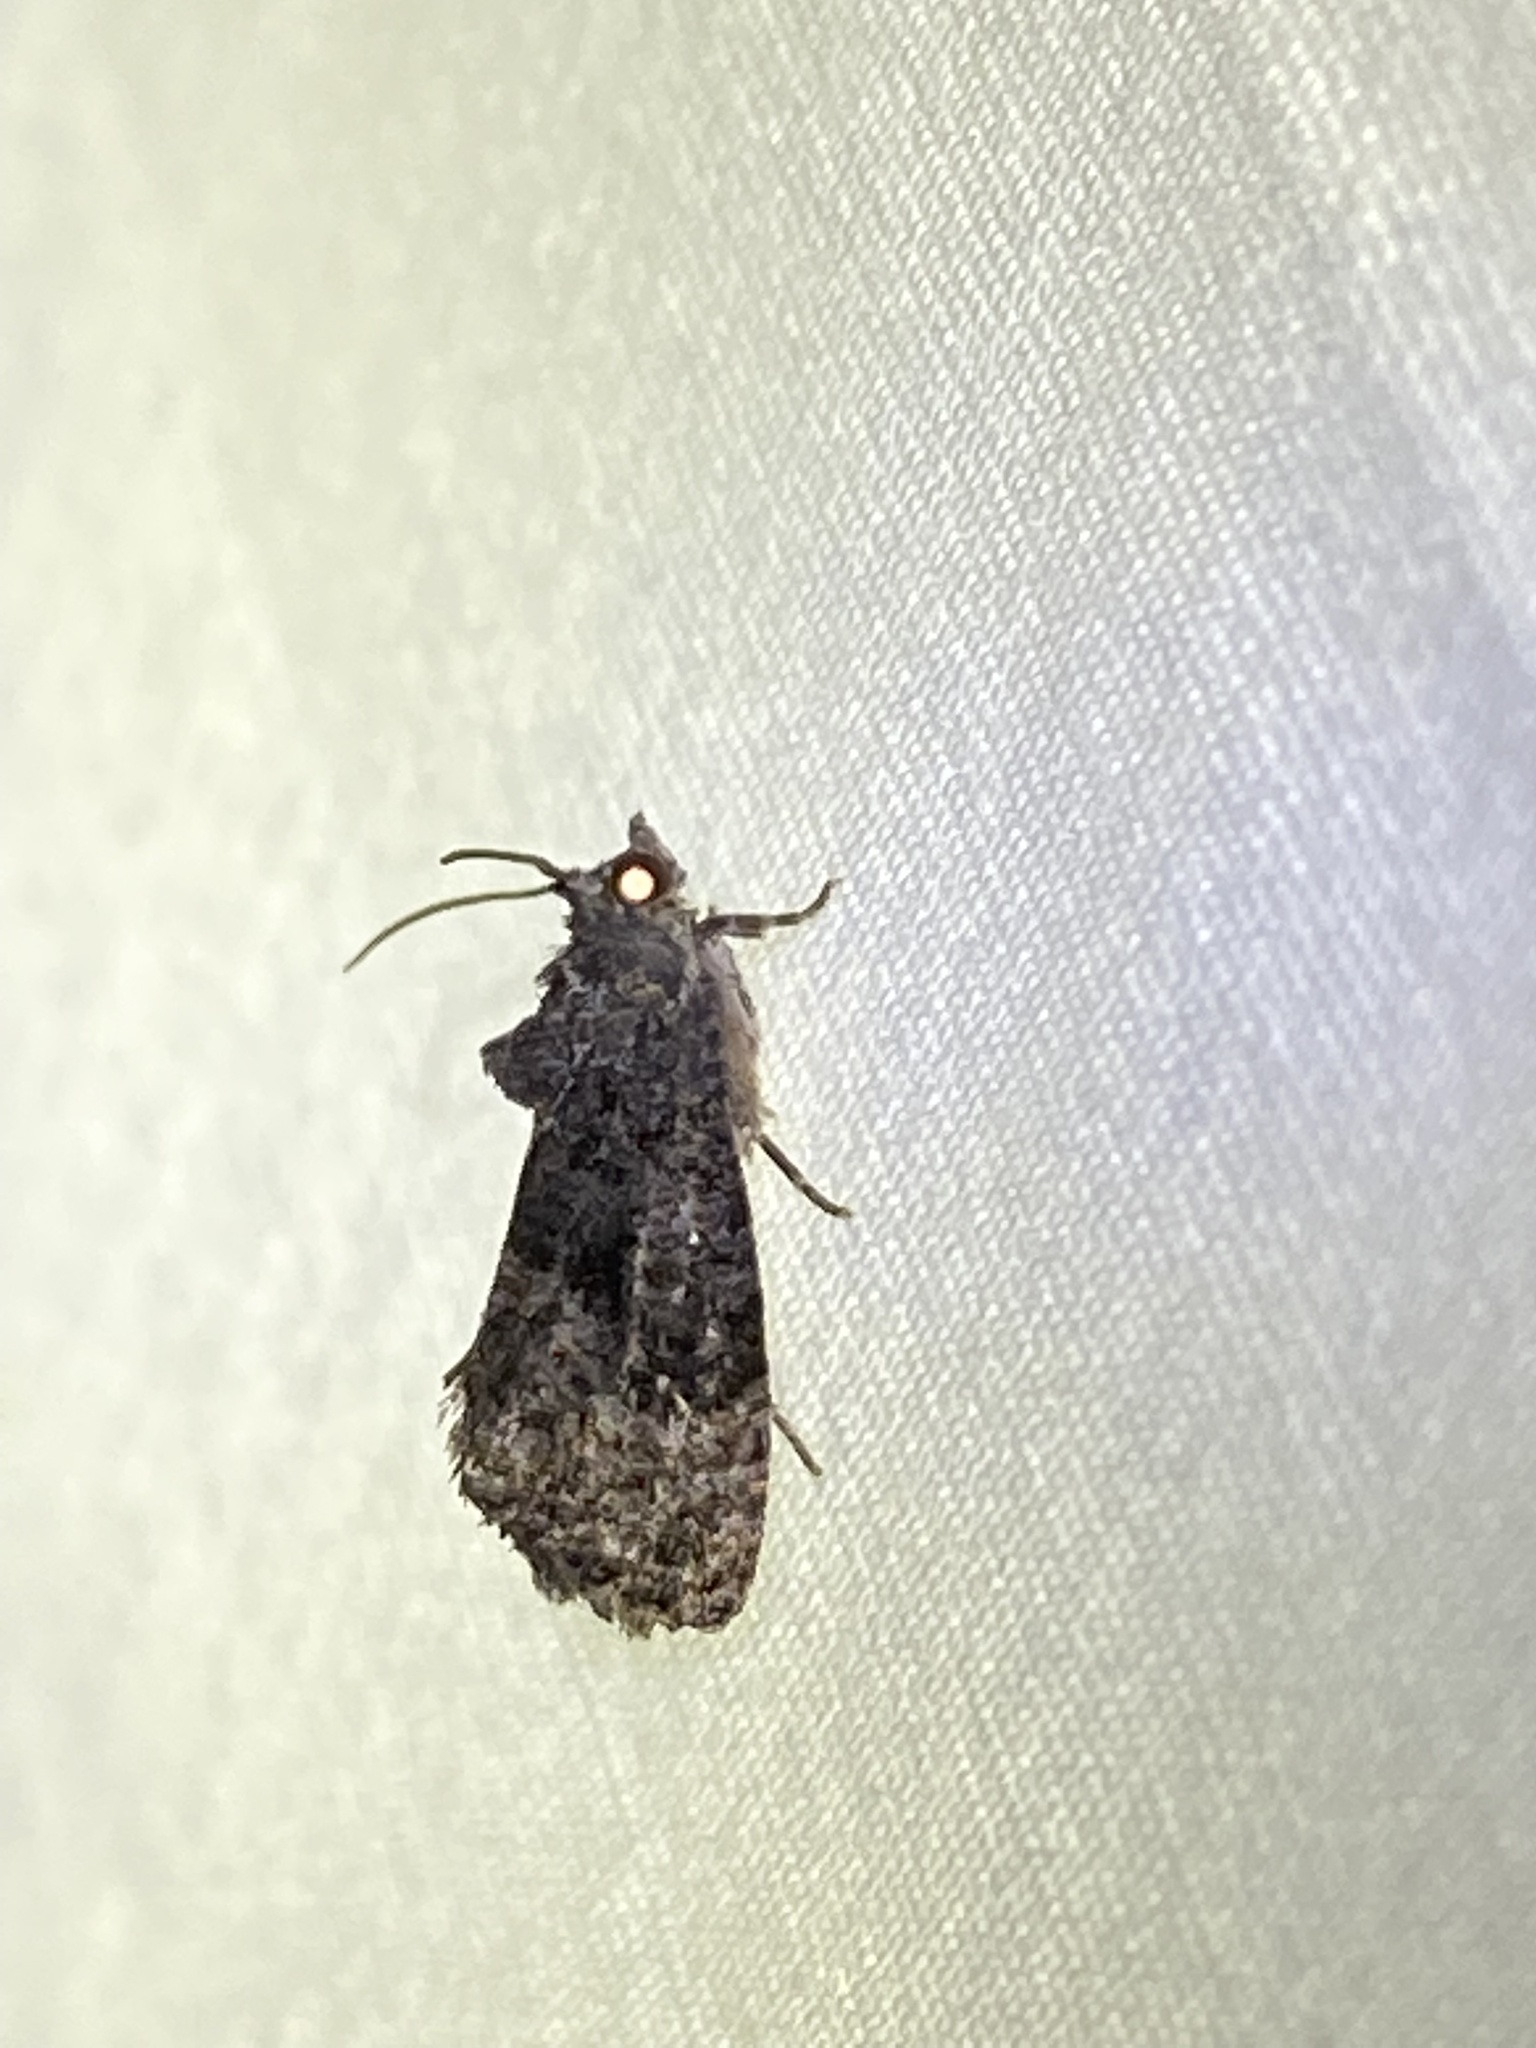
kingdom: Animalia
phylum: Arthropoda
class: Insecta
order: Lepidoptera
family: Tortricidae
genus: Gymnandrosoma
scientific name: Gymnandrosoma punctidiscanum
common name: Dotted ecdytolopha moth
